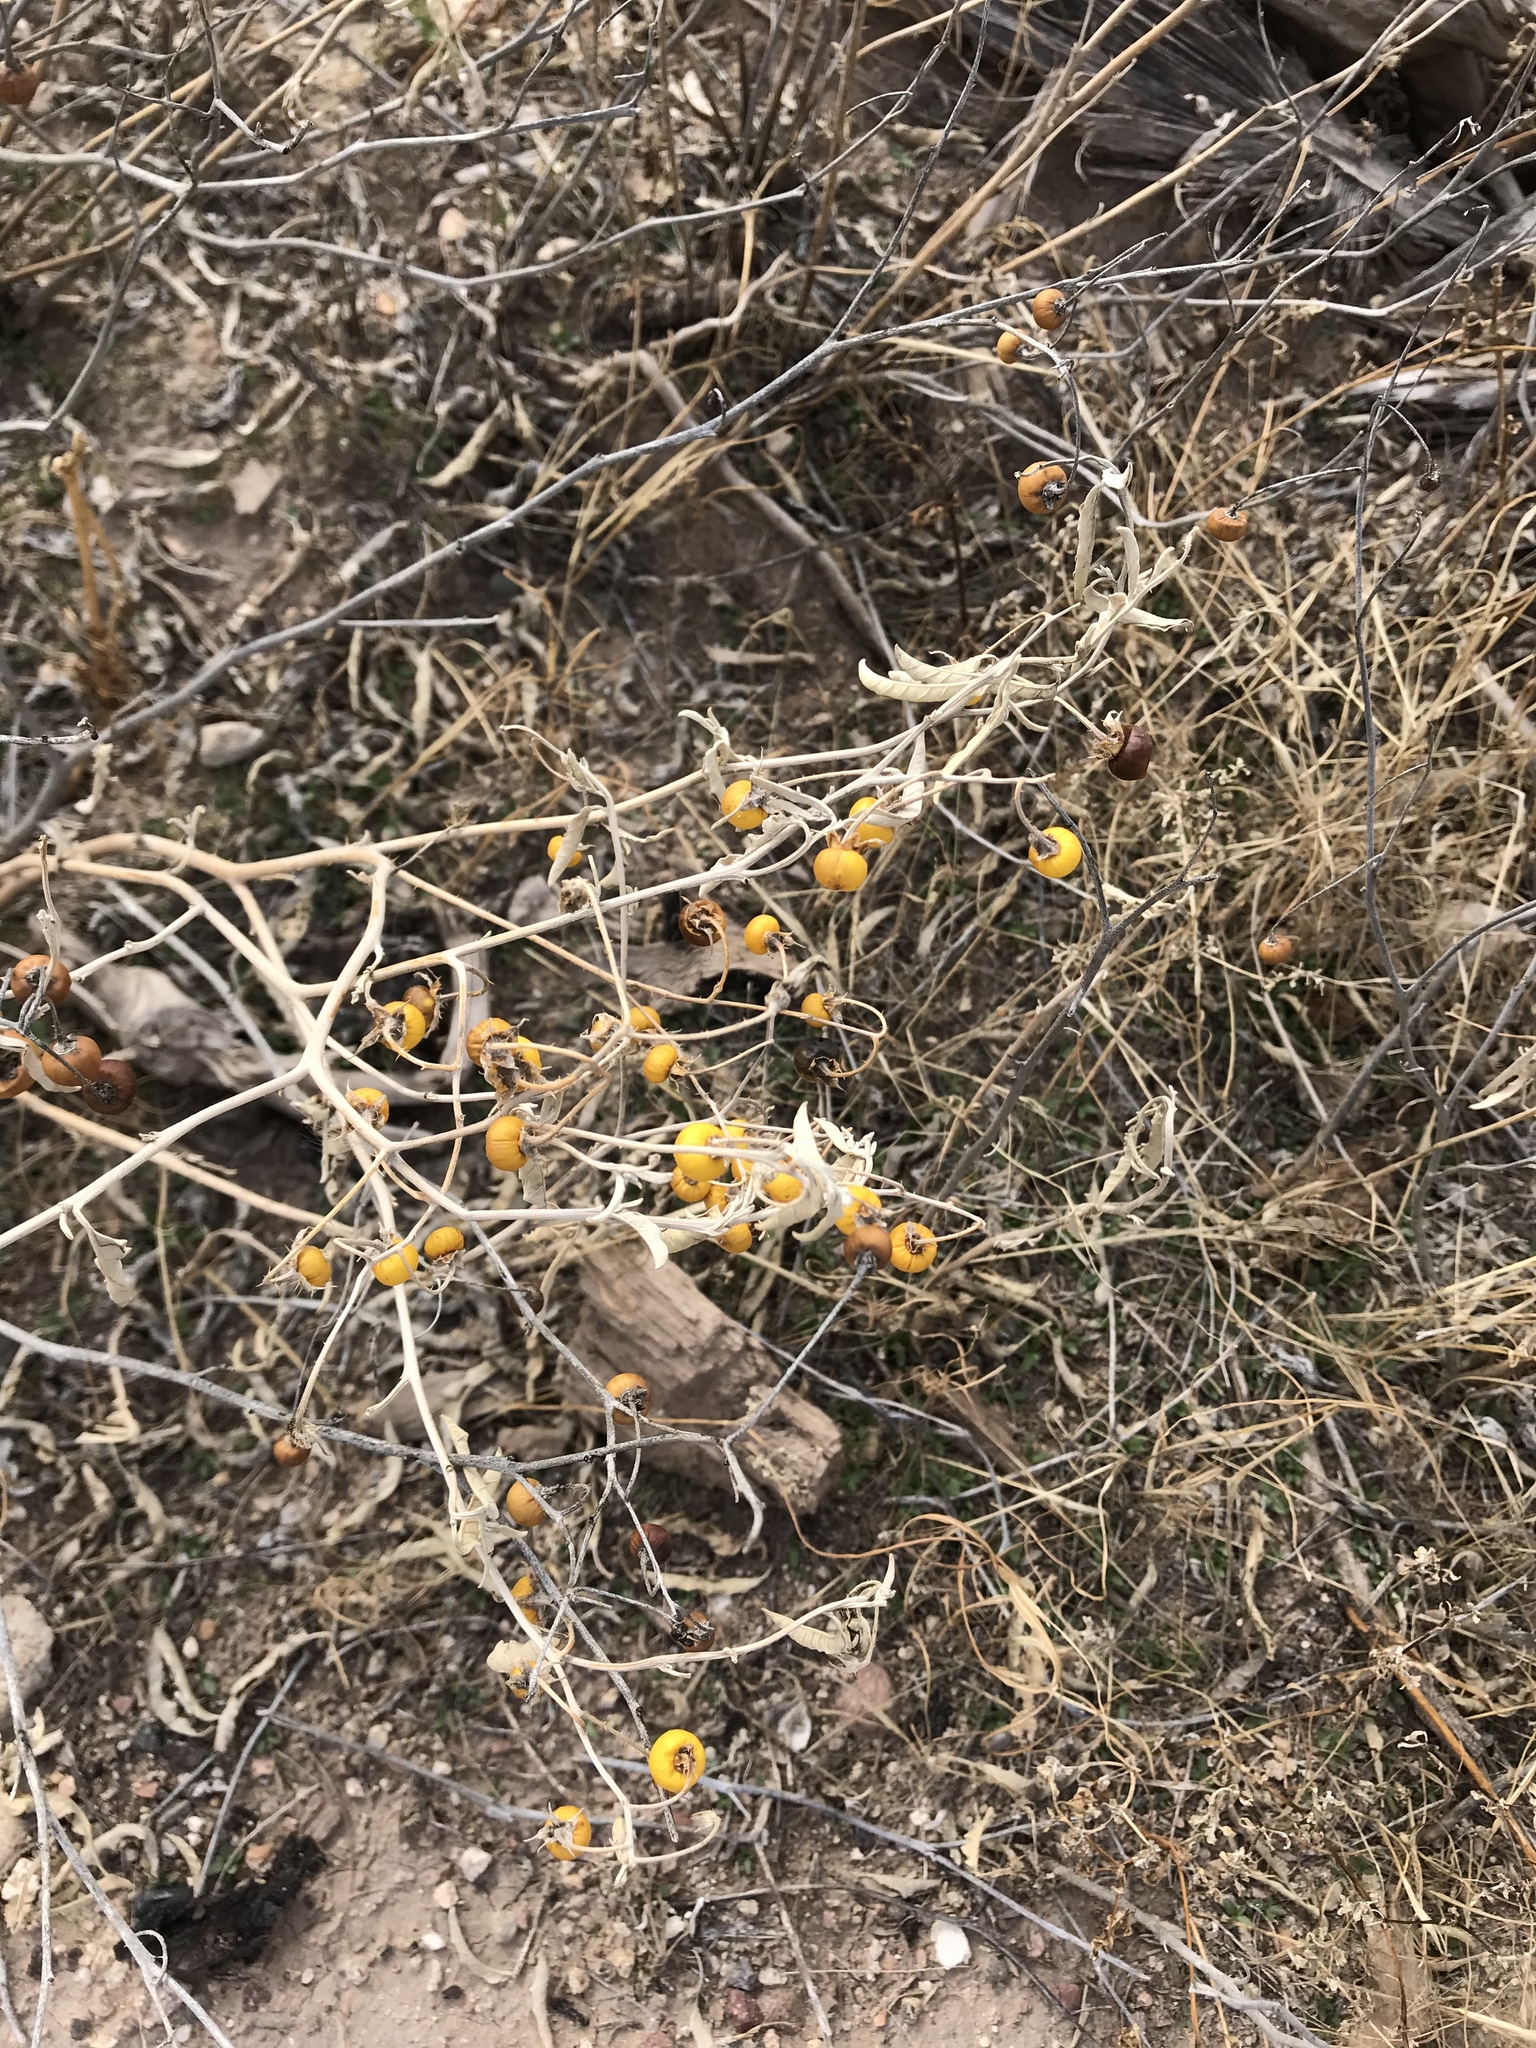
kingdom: Plantae
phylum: Tracheophyta
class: Magnoliopsida
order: Solanales
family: Solanaceae
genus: Solanum
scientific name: Solanum elaeagnifolium
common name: Silverleaf nightshade
